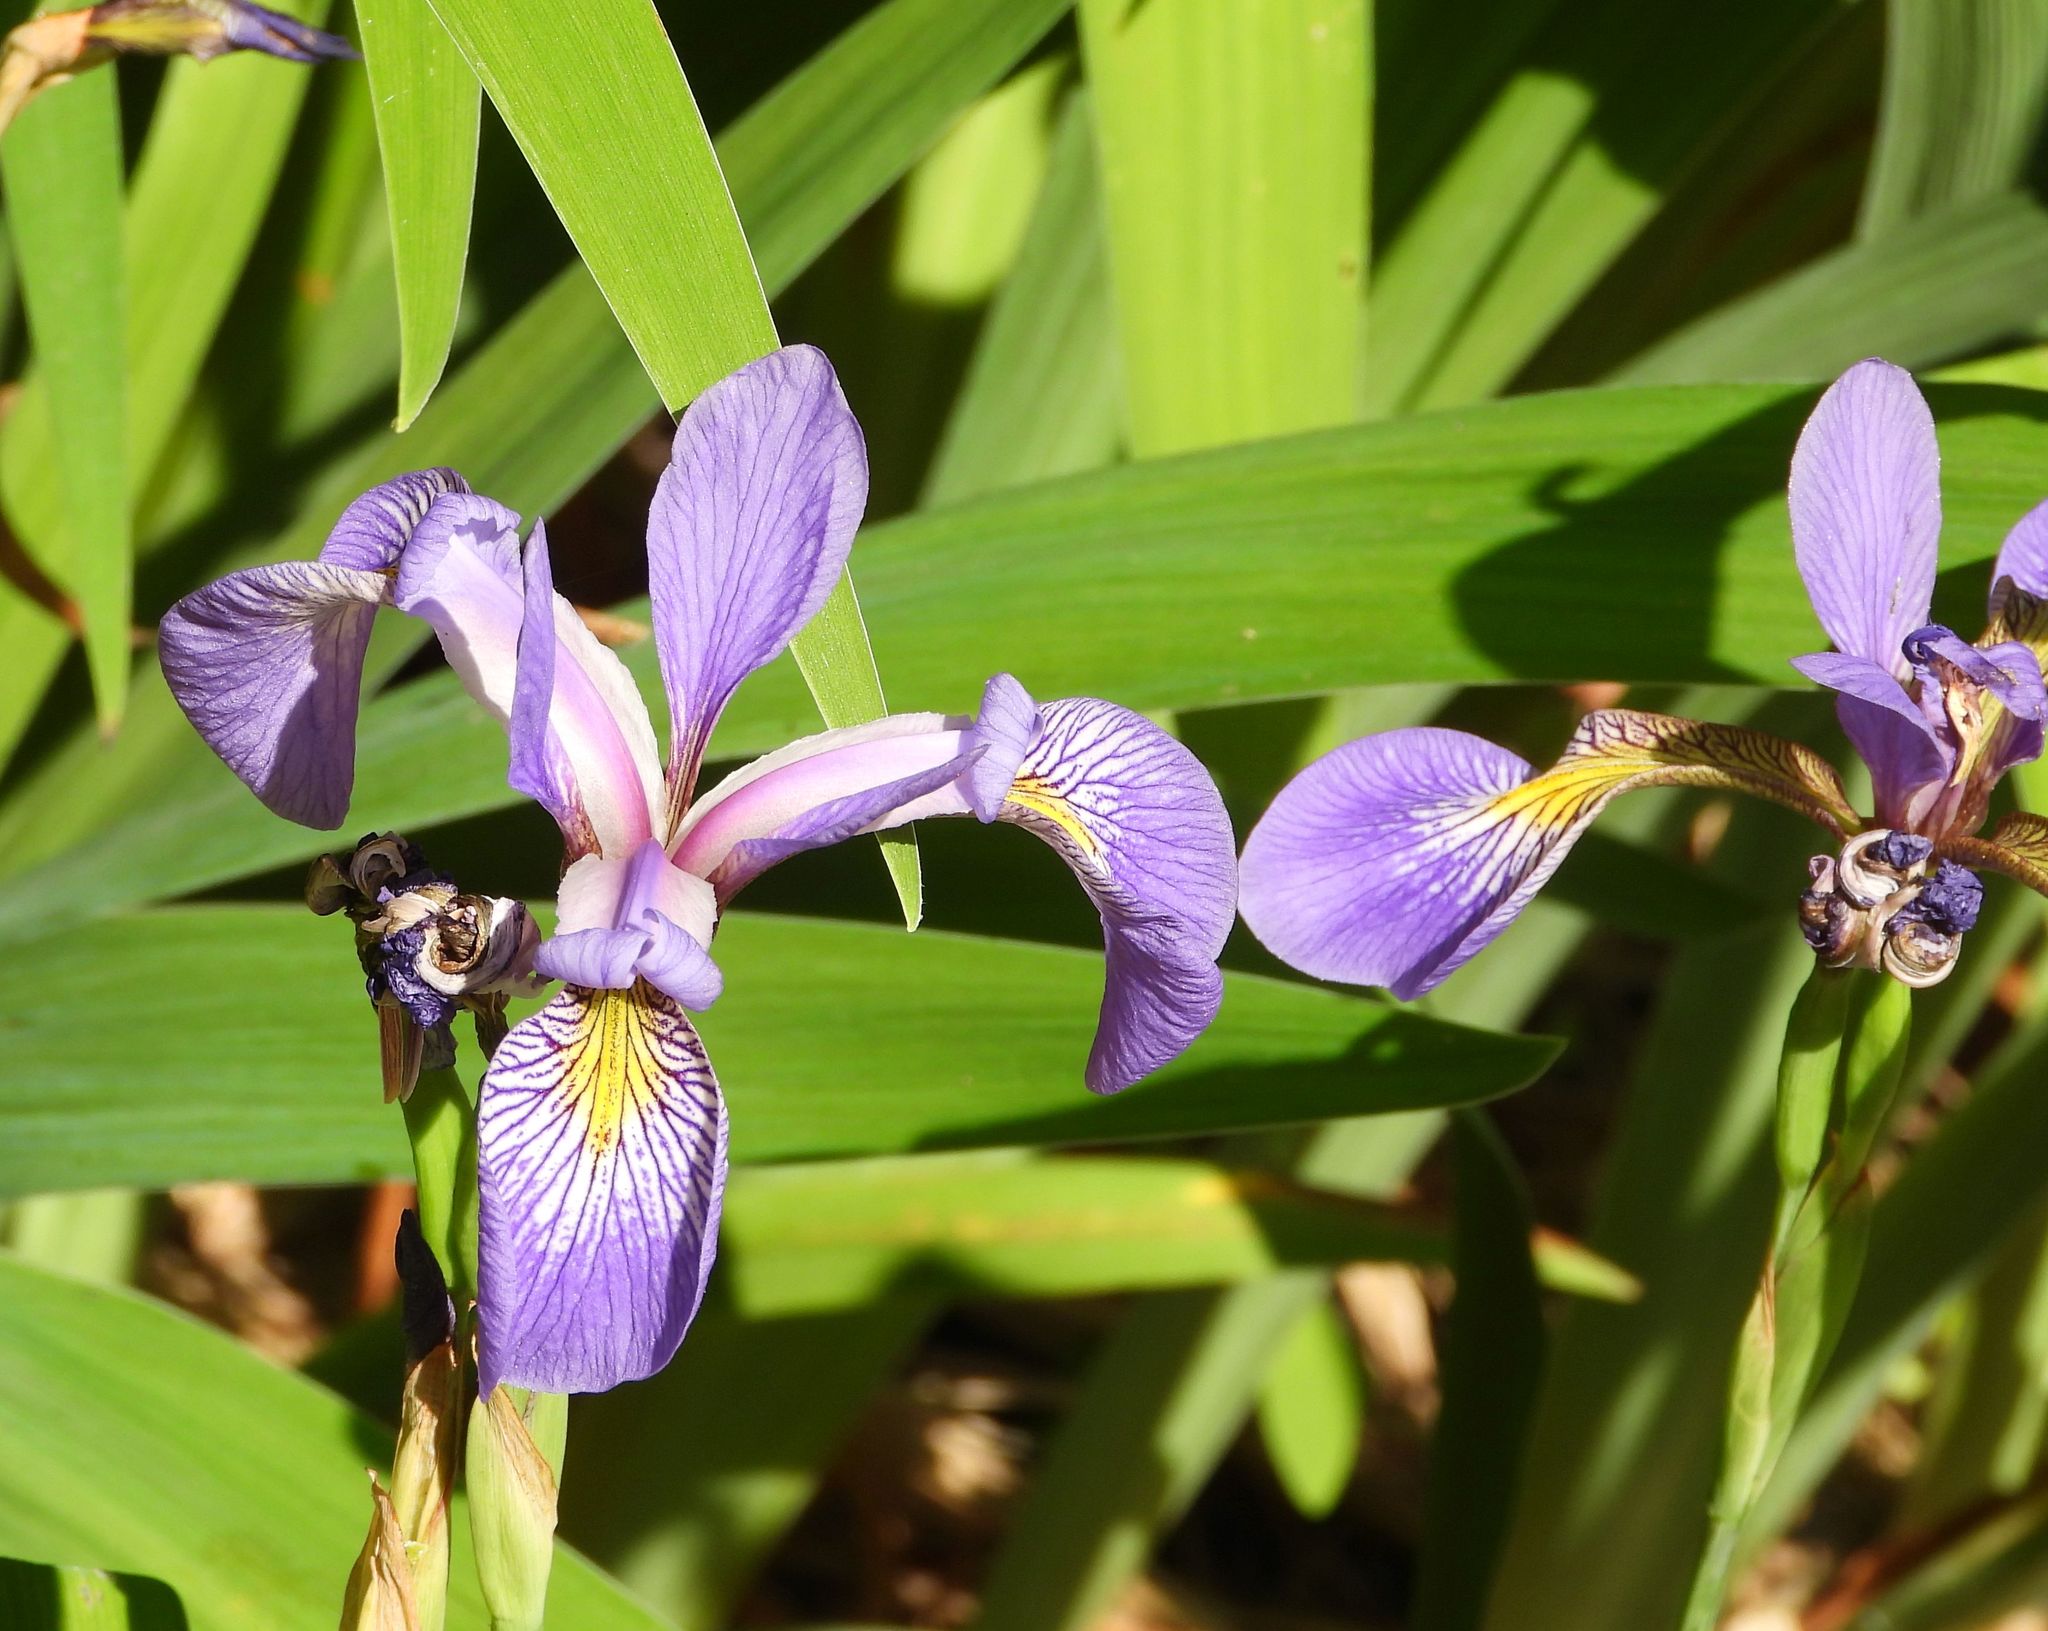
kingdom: Plantae
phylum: Tracheophyta
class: Liliopsida
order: Asparagales
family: Iridaceae
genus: Iris
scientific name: Iris versicolor
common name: Purple iris
